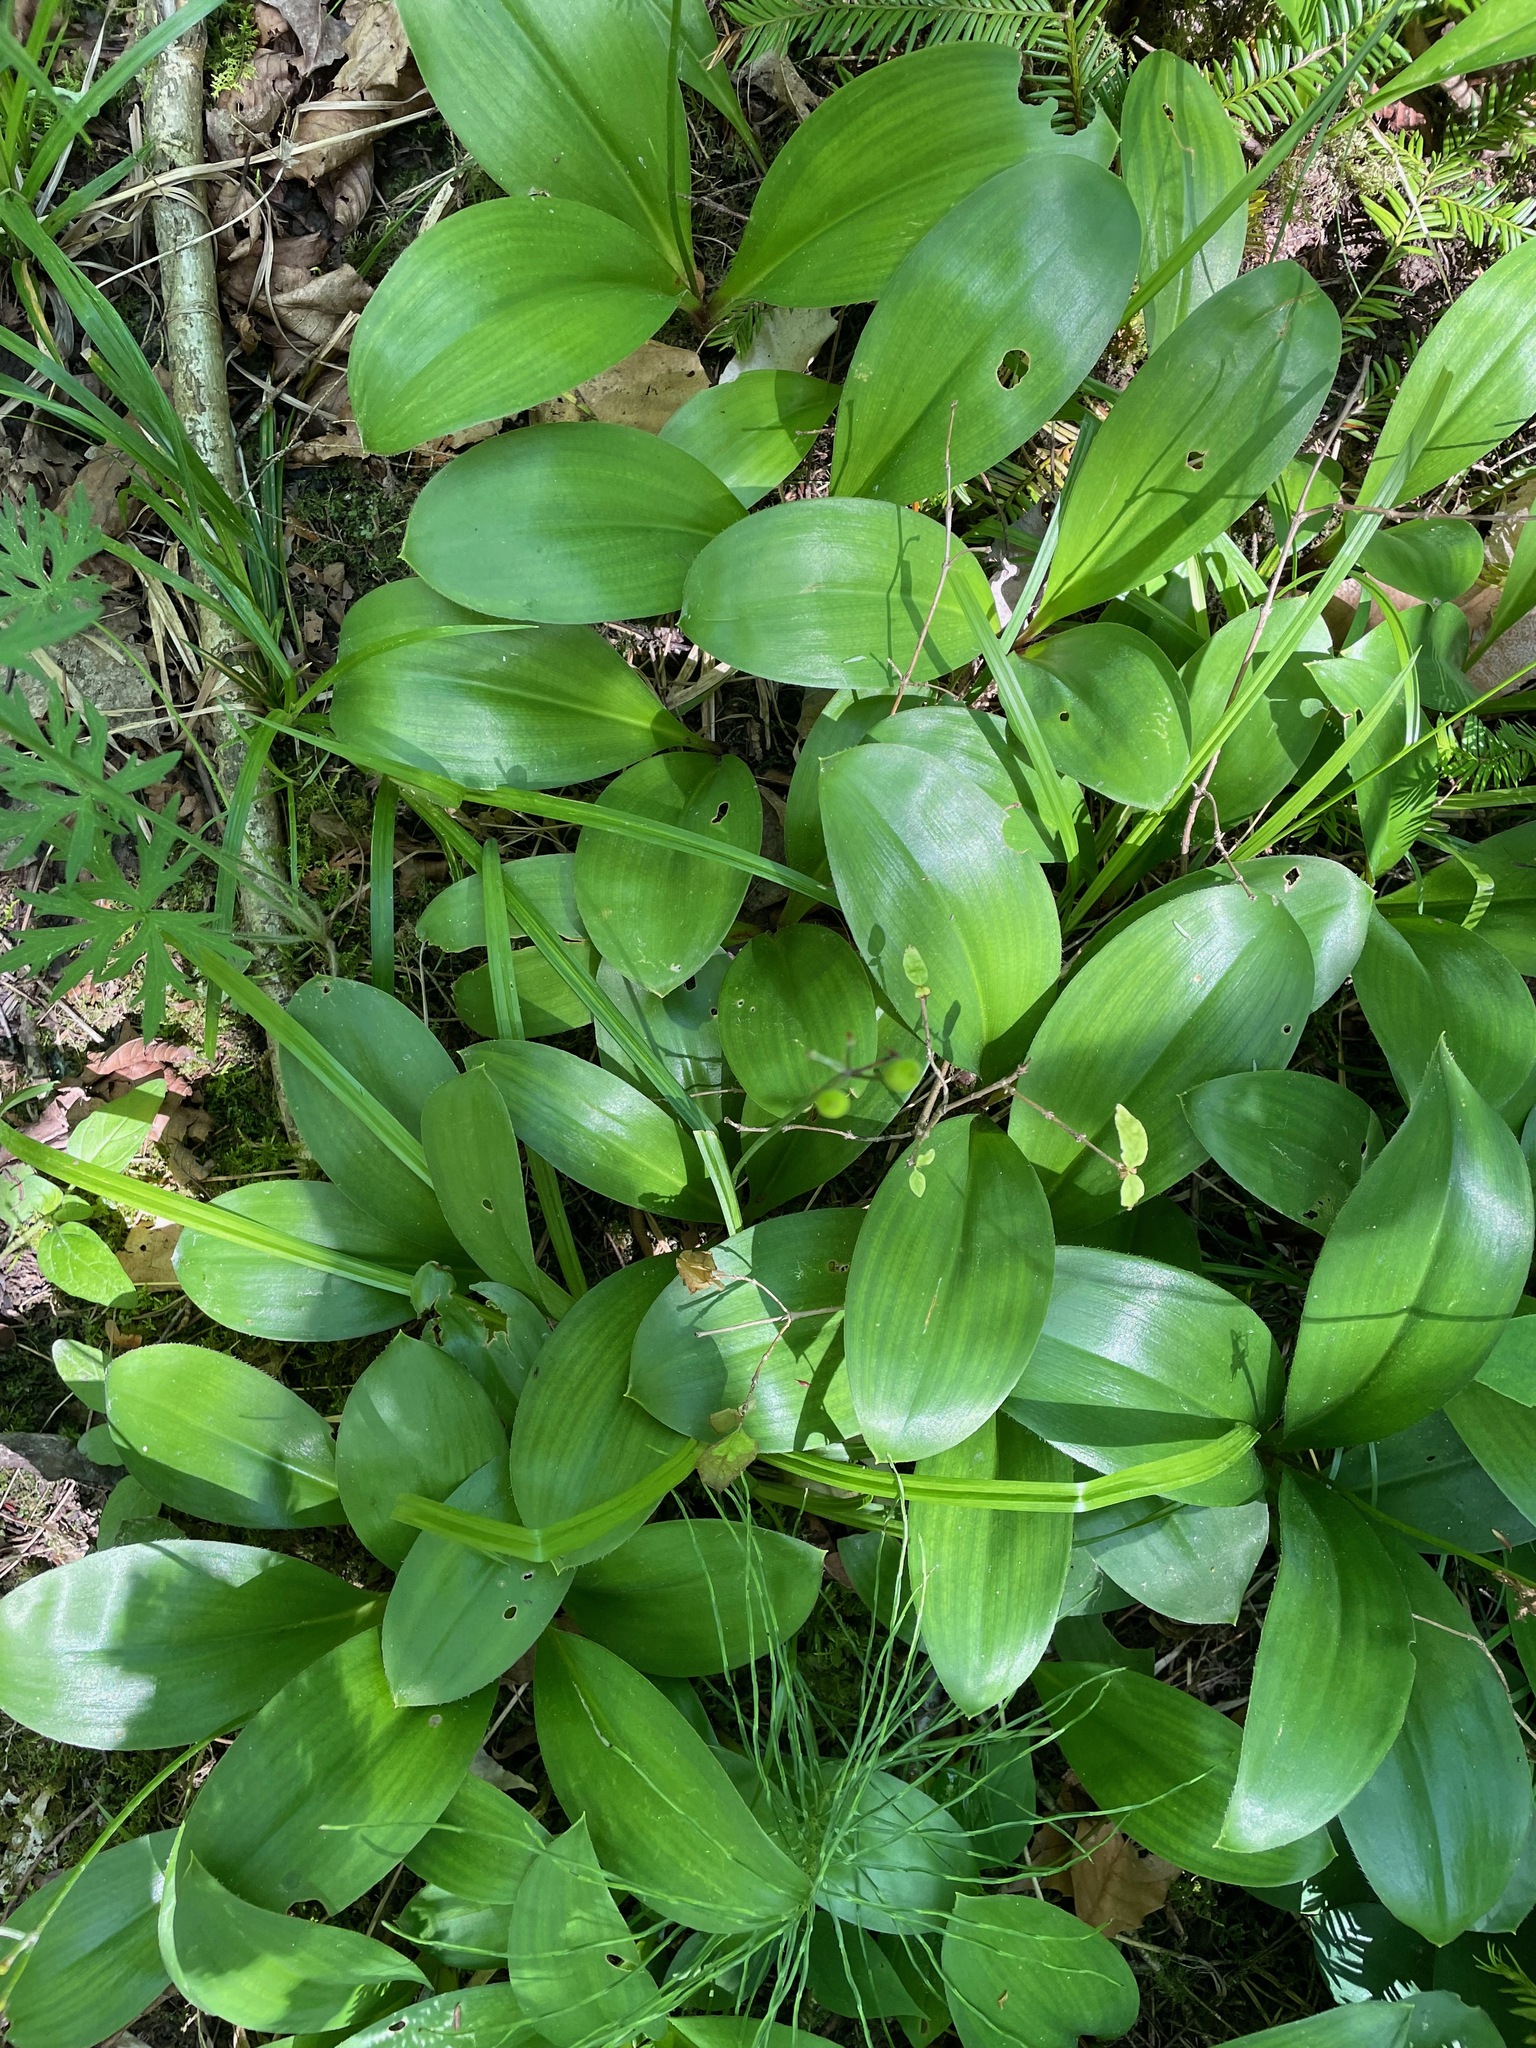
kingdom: Plantae
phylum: Tracheophyta
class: Liliopsida
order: Liliales
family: Liliaceae
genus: Clintonia
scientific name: Clintonia borealis
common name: Yellow clintonia
